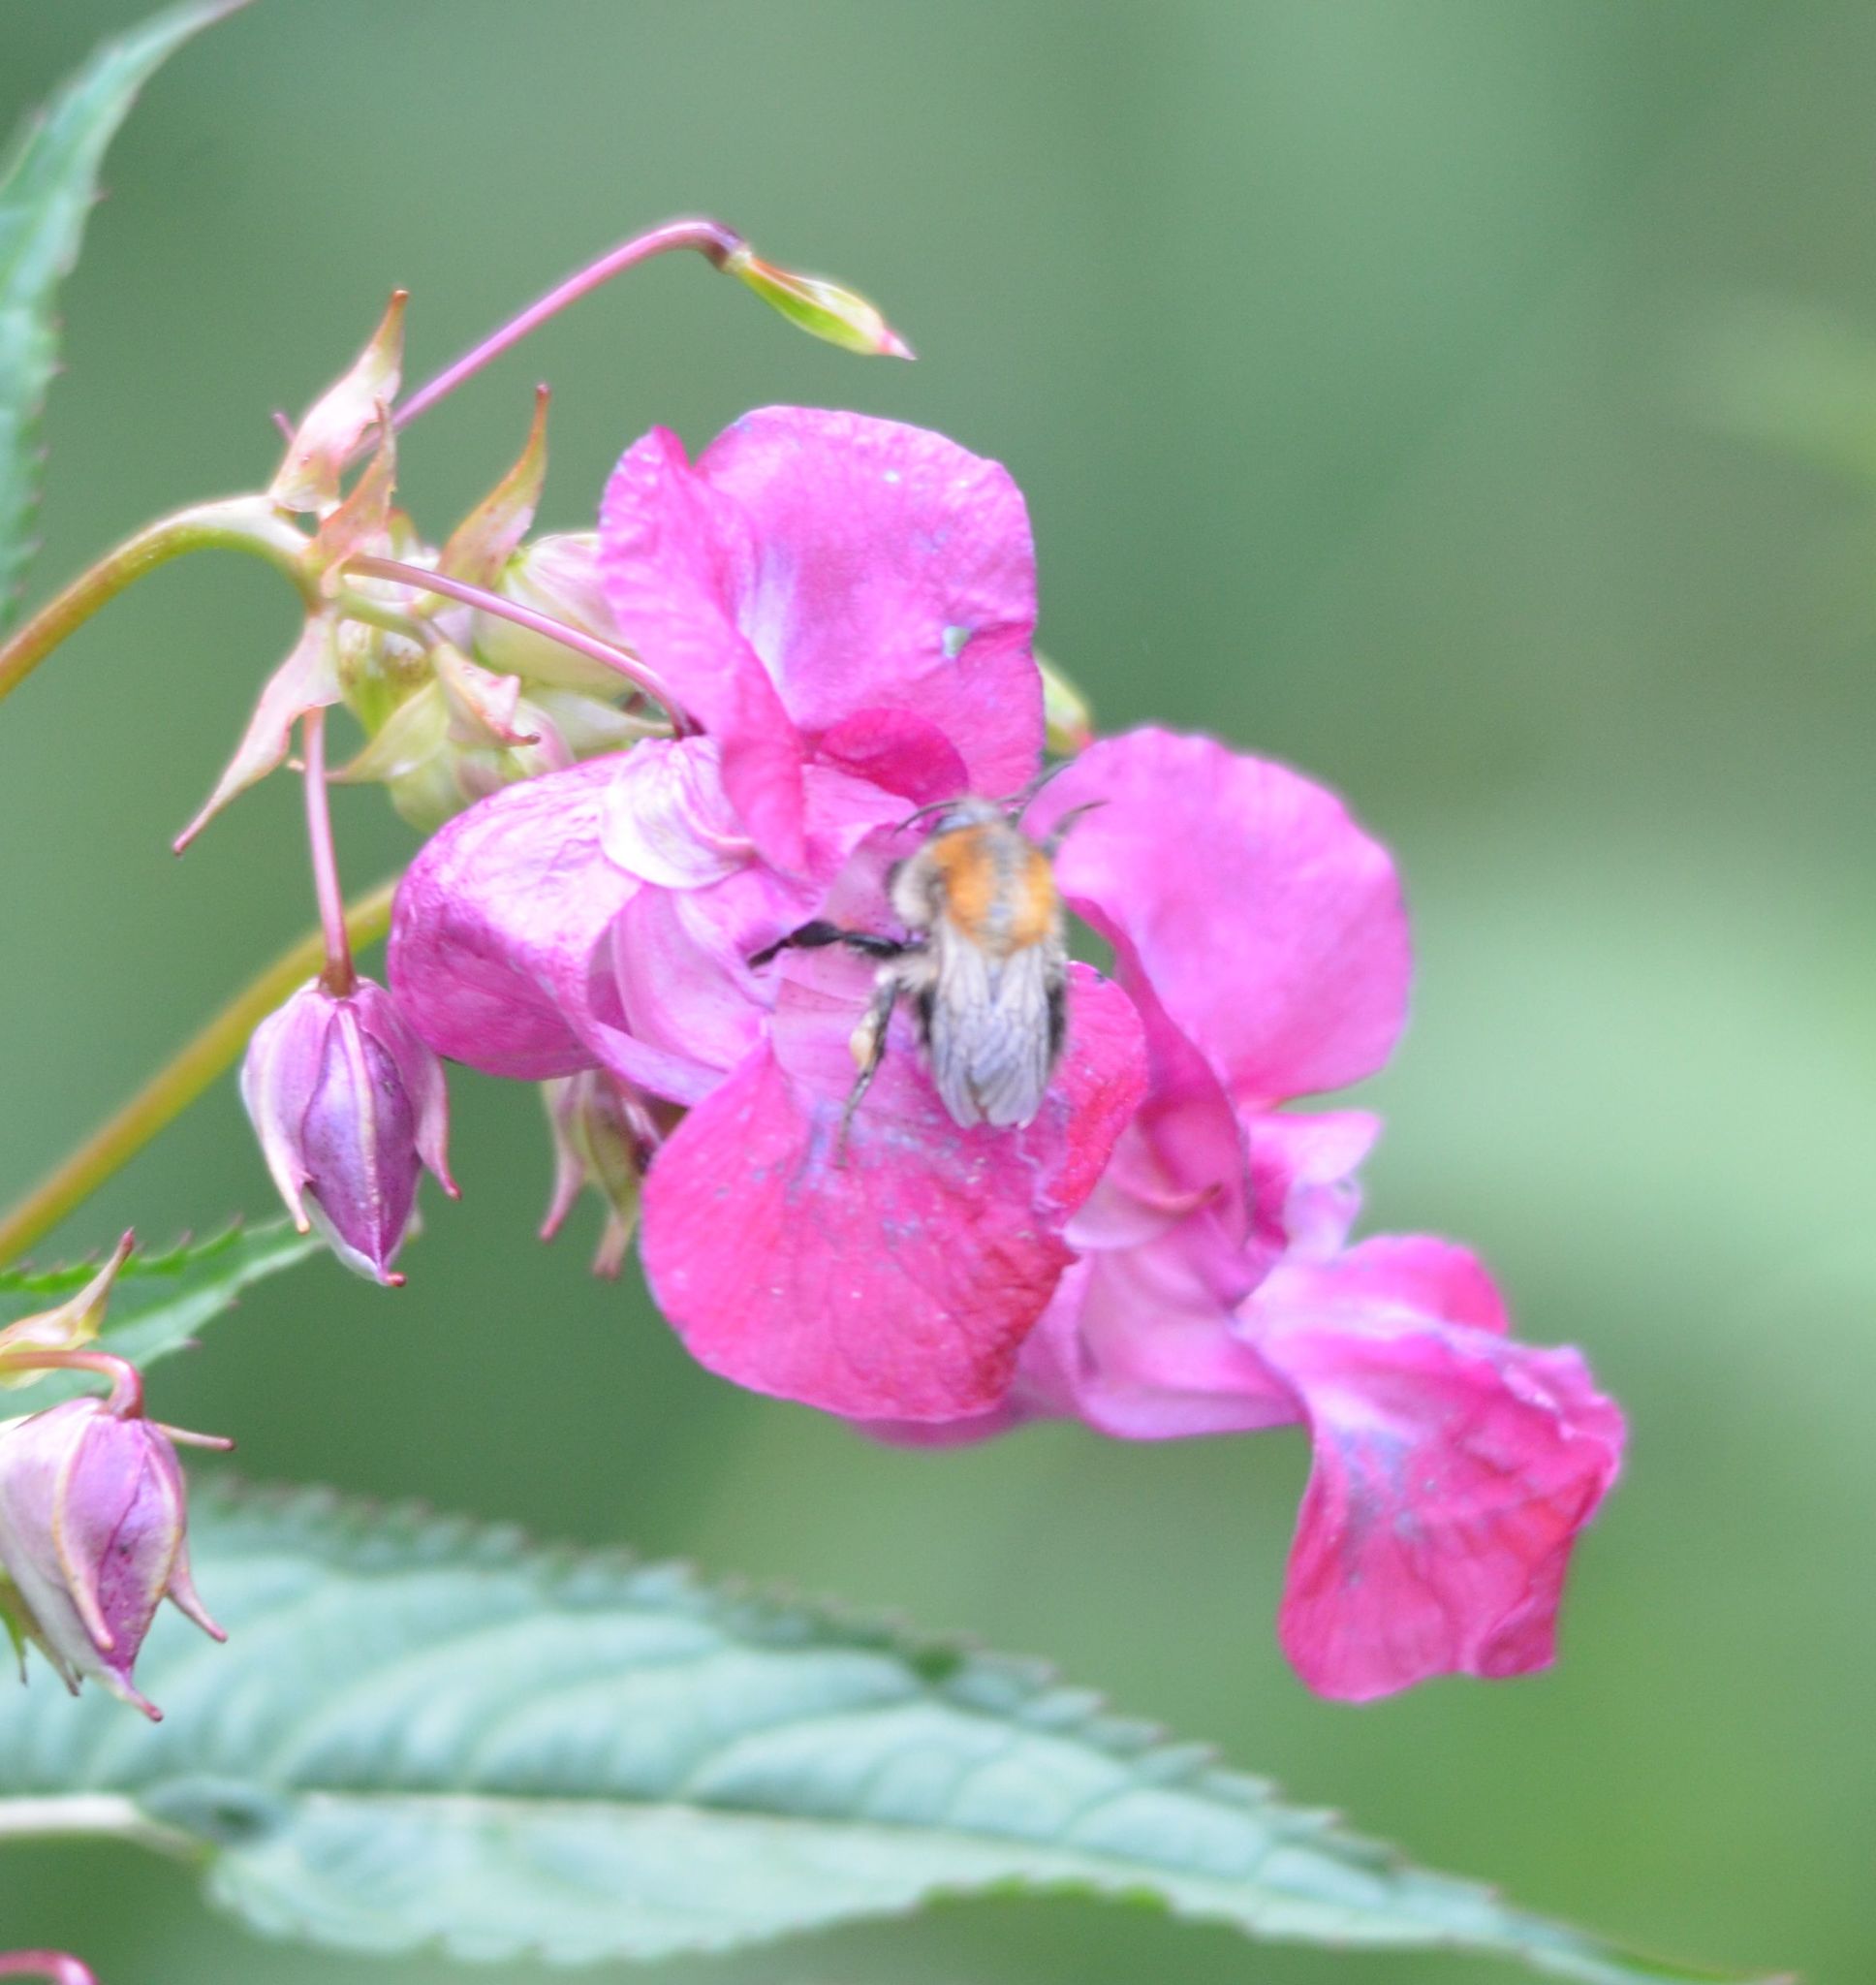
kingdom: Animalia
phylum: Arthropoda
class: Insecta
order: Hymenoptera
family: Apidae
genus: Bombus
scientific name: Bombus pascuorum
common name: Common carder bee
